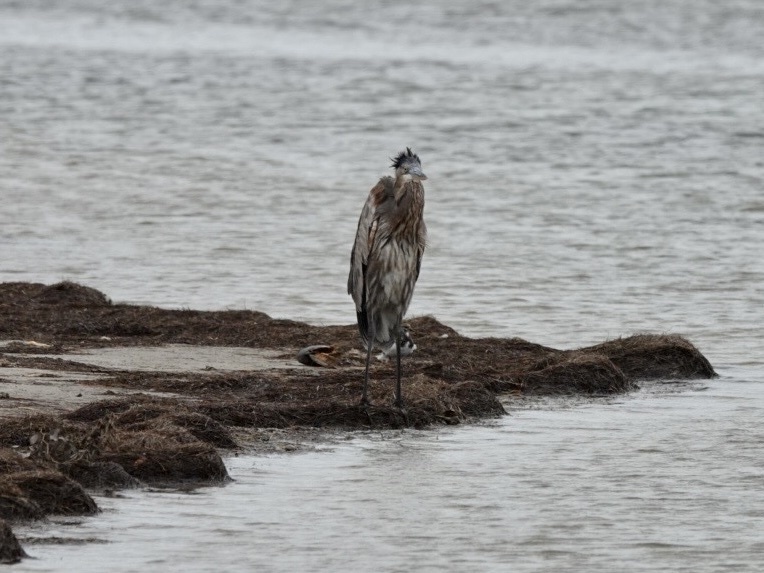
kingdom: Animalia
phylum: Chordata
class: Aves
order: Pelecaniformes
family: Ardeidae
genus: Ardea
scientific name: Ardea herodias
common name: Great blue heron
